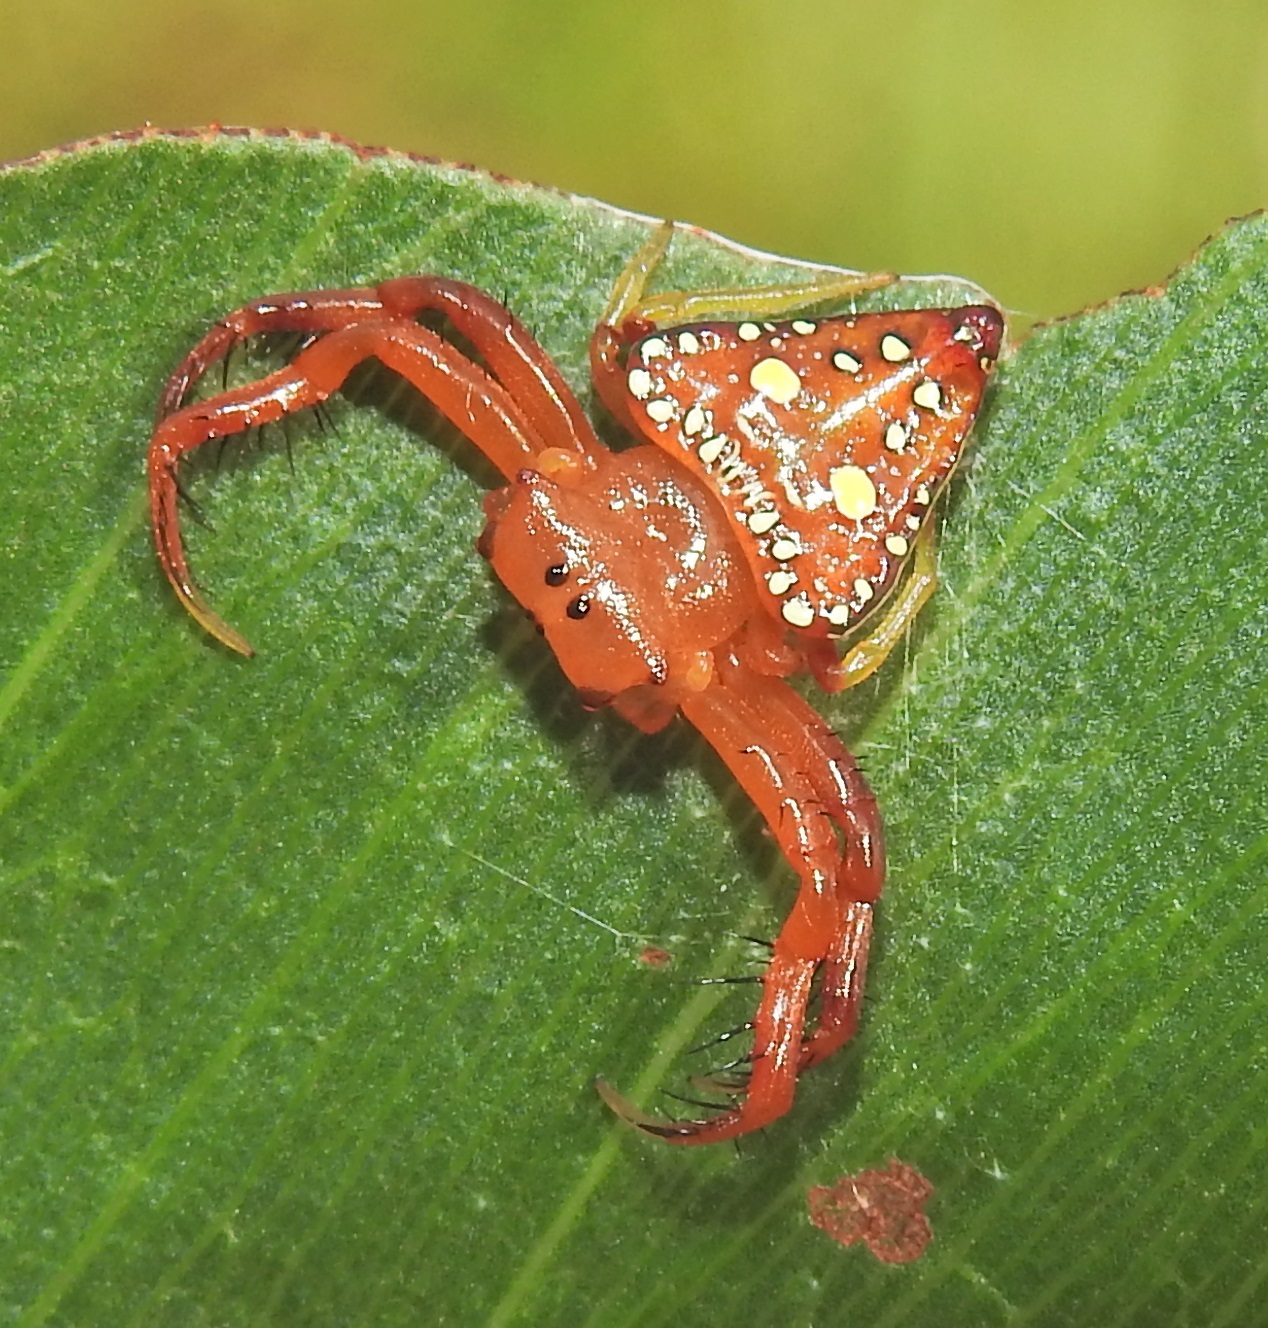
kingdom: Animalia
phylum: Arthropoda
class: Arachnida
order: Araneae
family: Arkyidae
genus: Arkys
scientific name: Arkys lancearius
